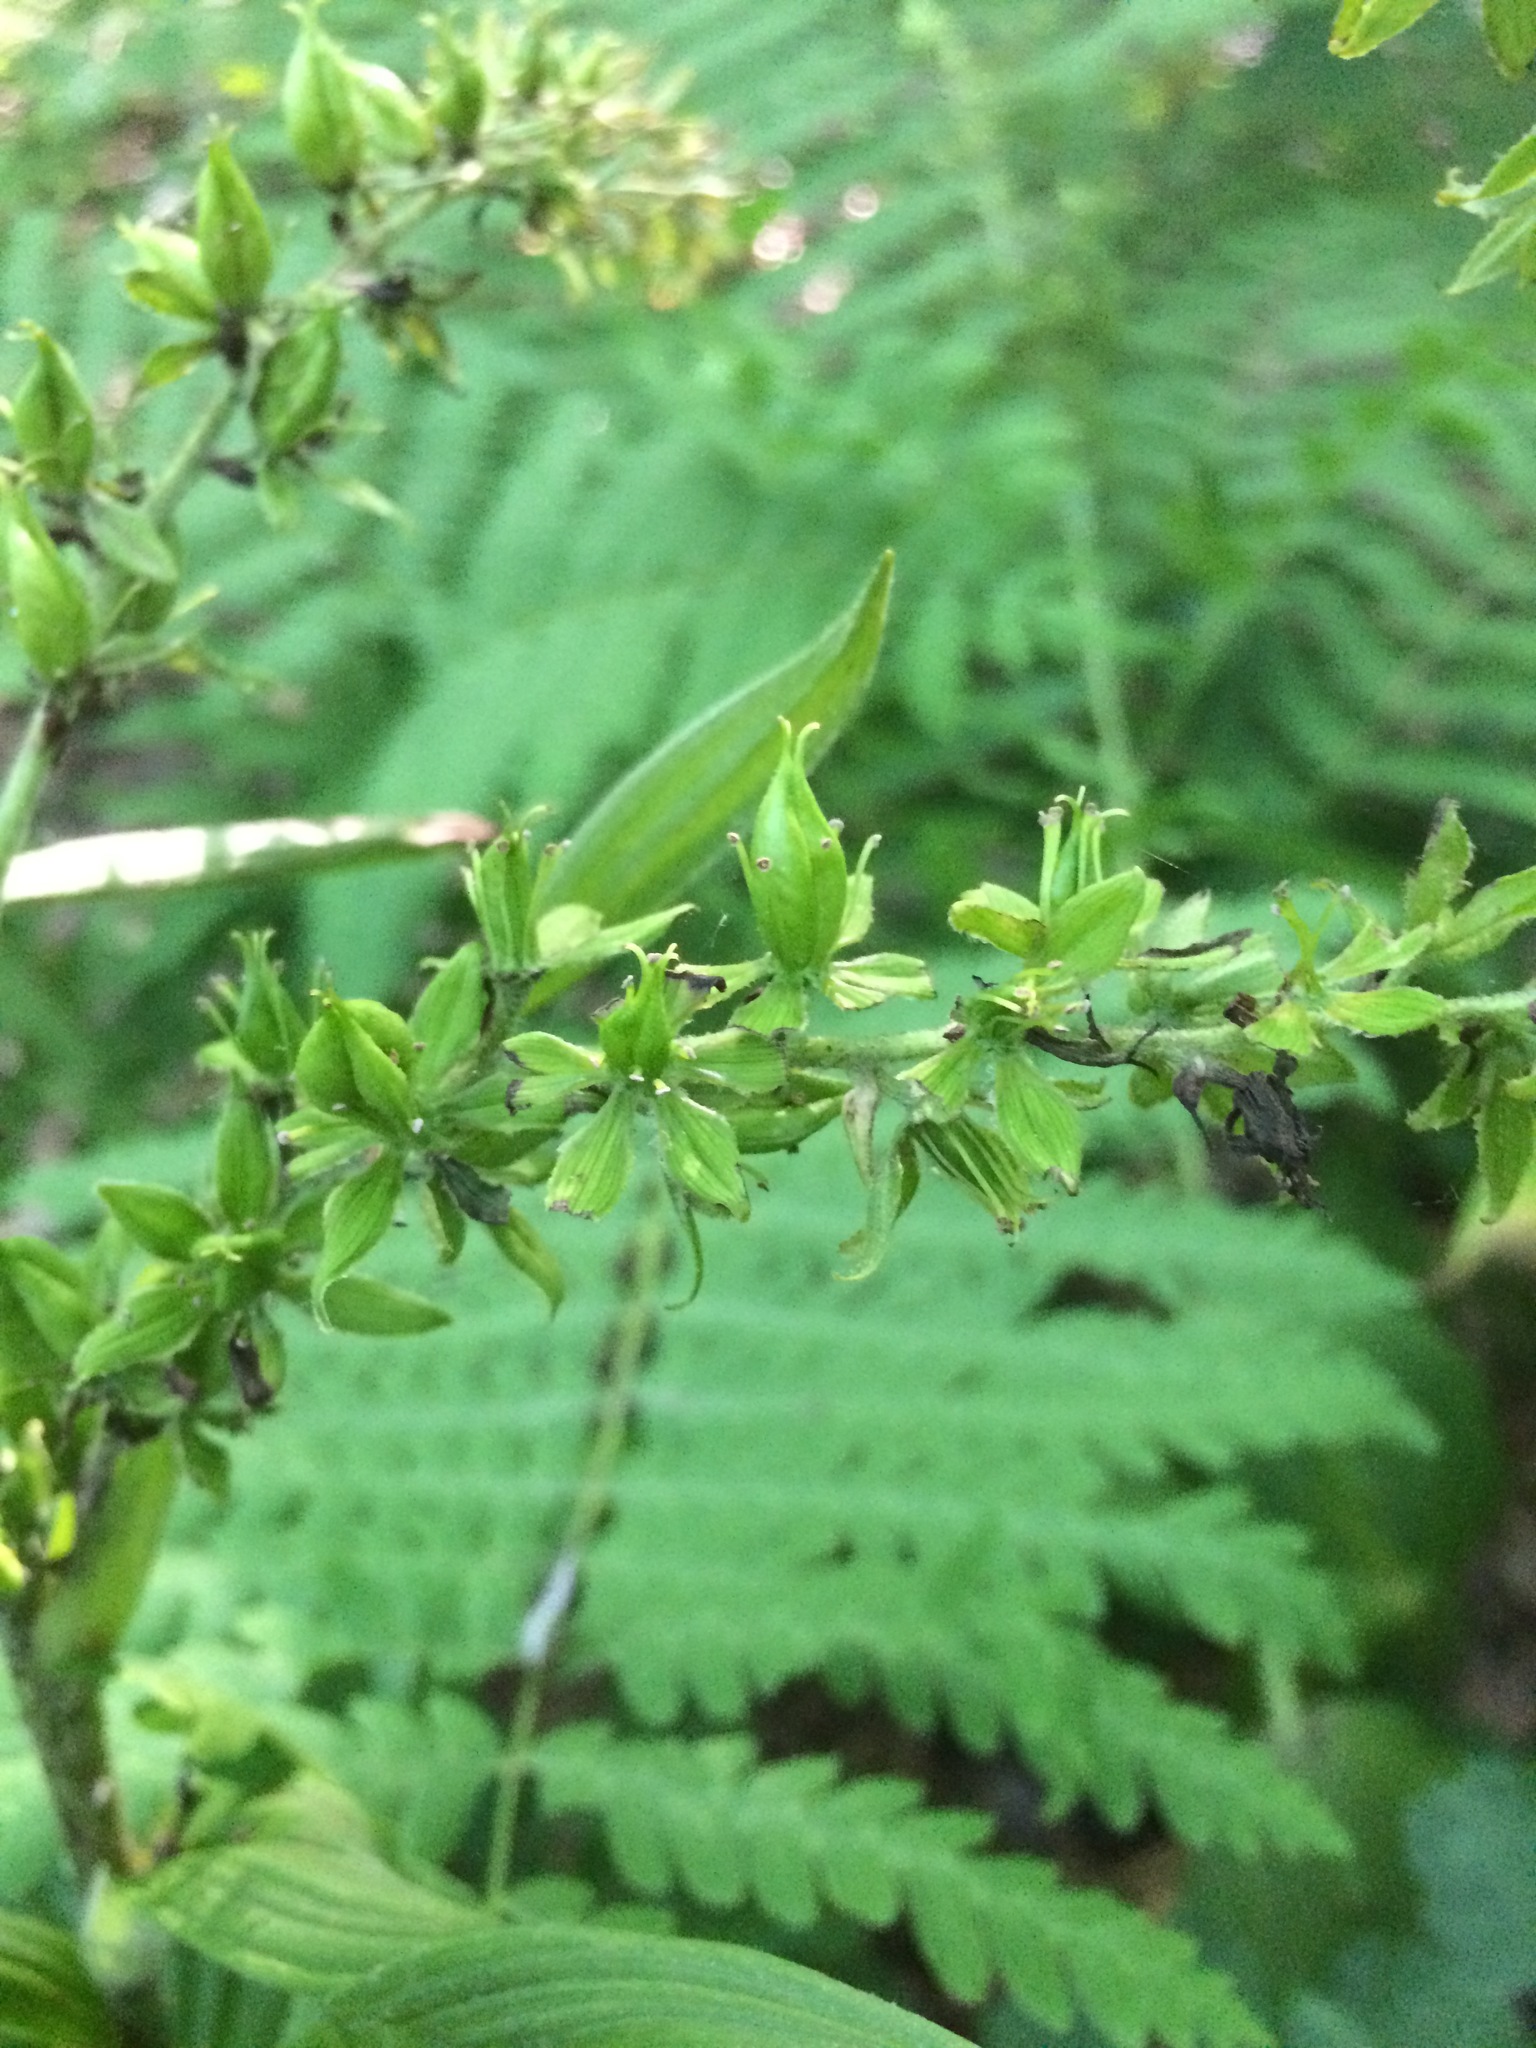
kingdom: Plantae
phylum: Tracheophyta
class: Liliopsida
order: Liliales
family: Melanthiaceae
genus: Veratrum
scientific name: Veratrum viride
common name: American false hellebore
